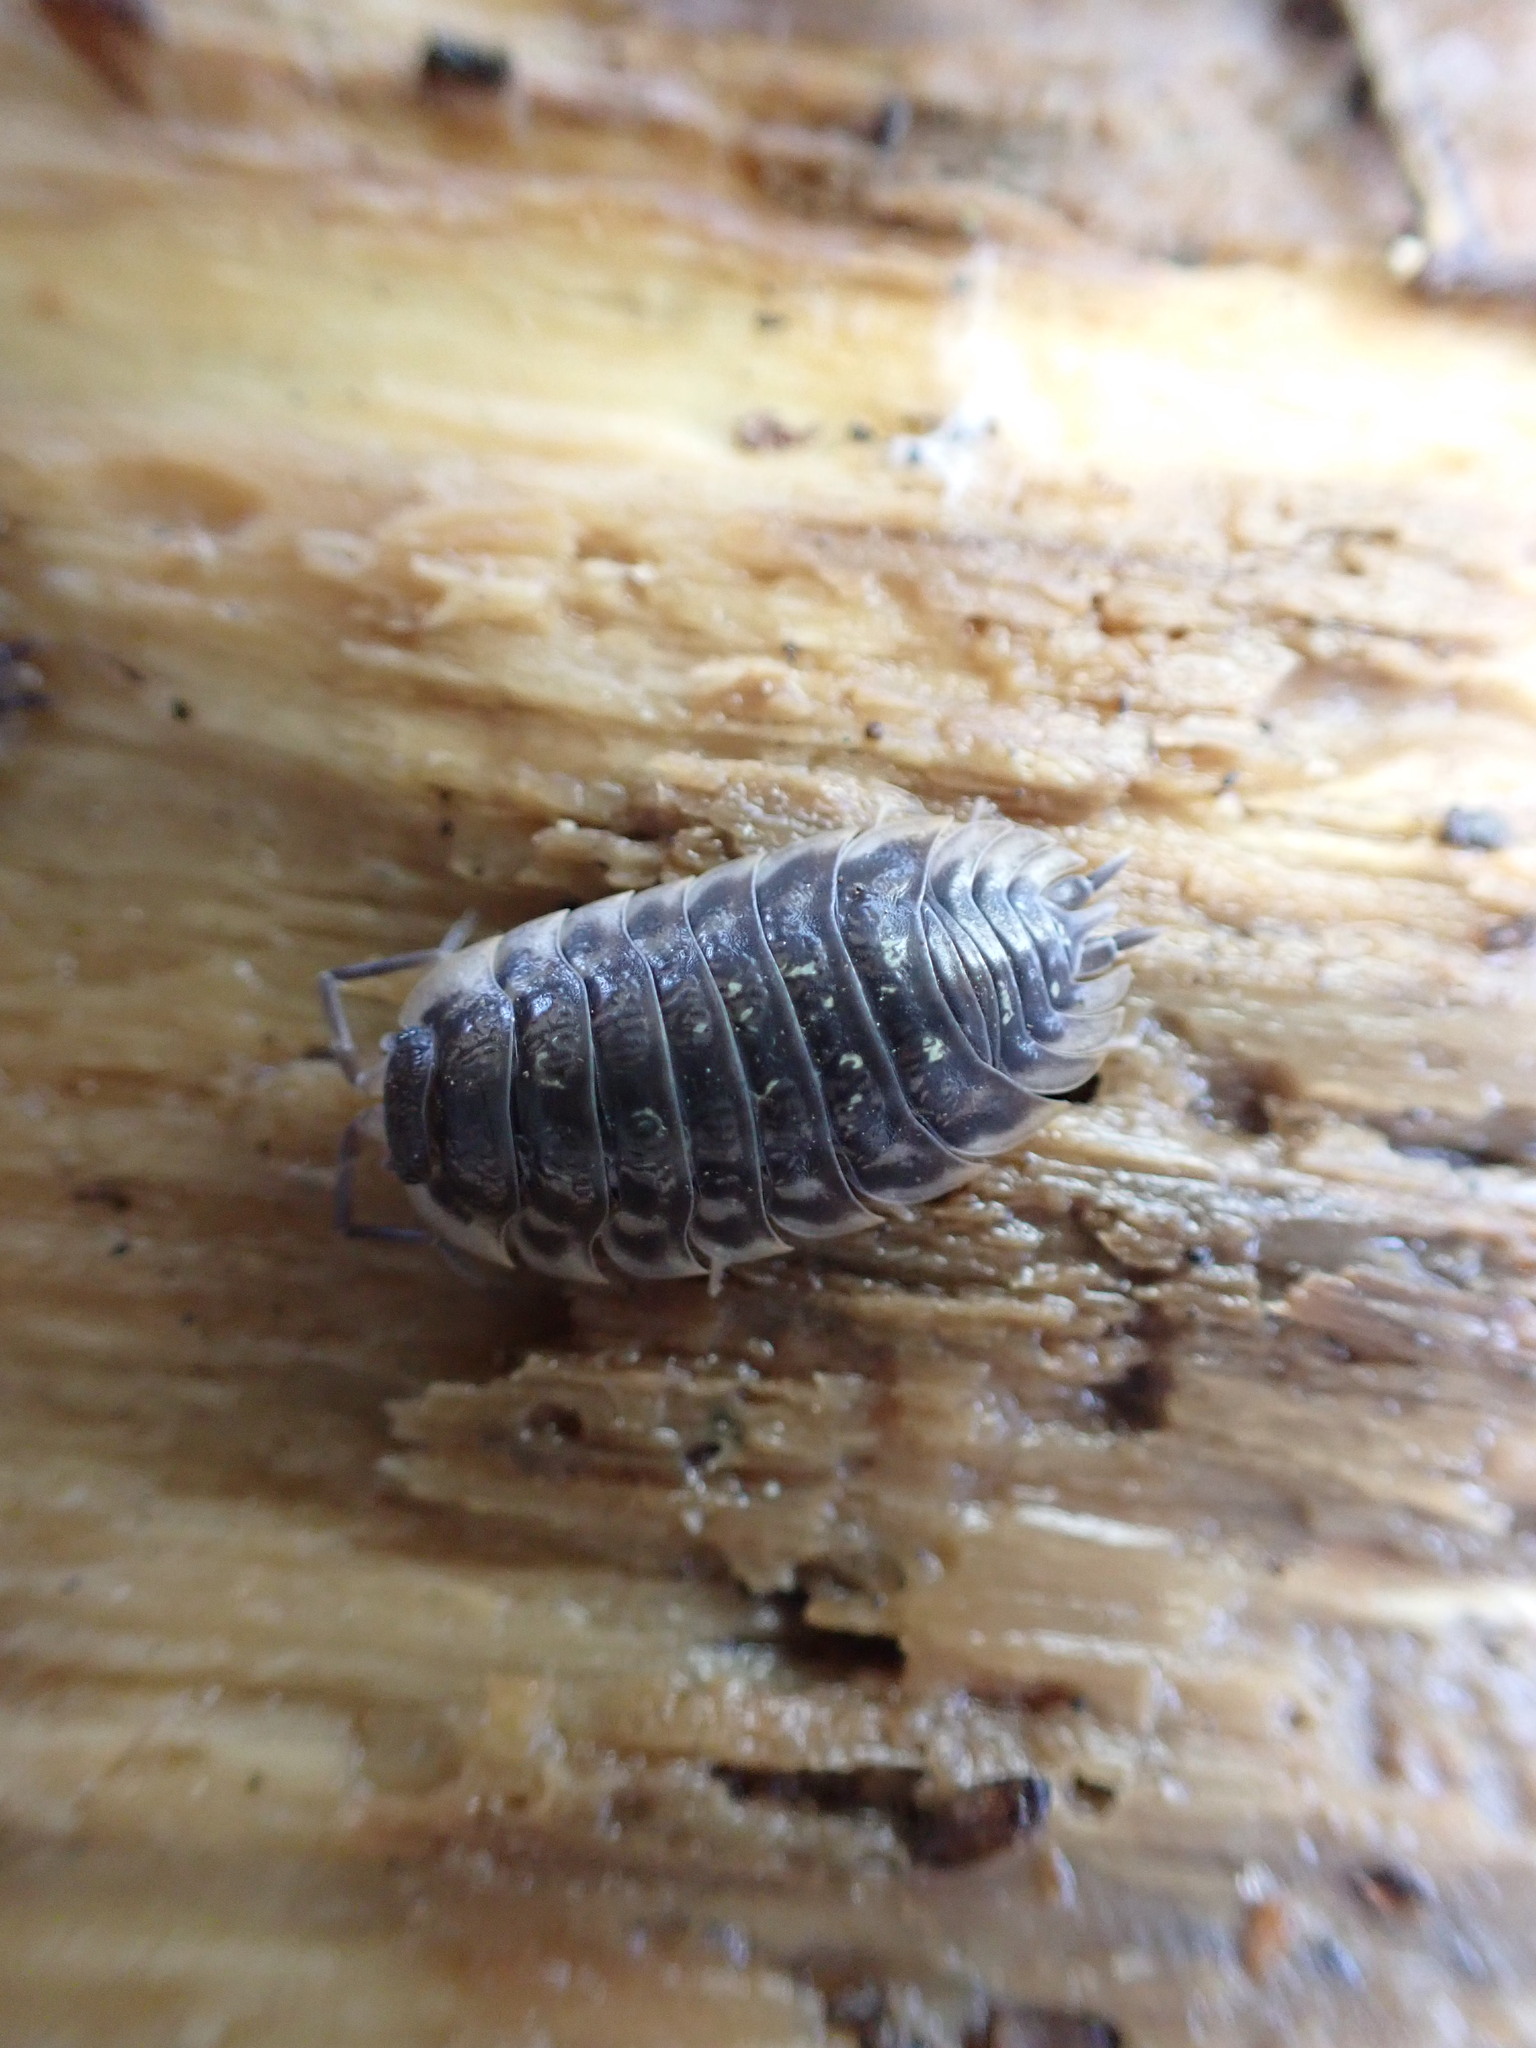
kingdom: Animalia
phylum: Arthropoda
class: Malacostraca
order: Isopoda
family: Oniscidae
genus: Oniscus
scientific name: Oniscus asellus
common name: Common shiny woodlouse
